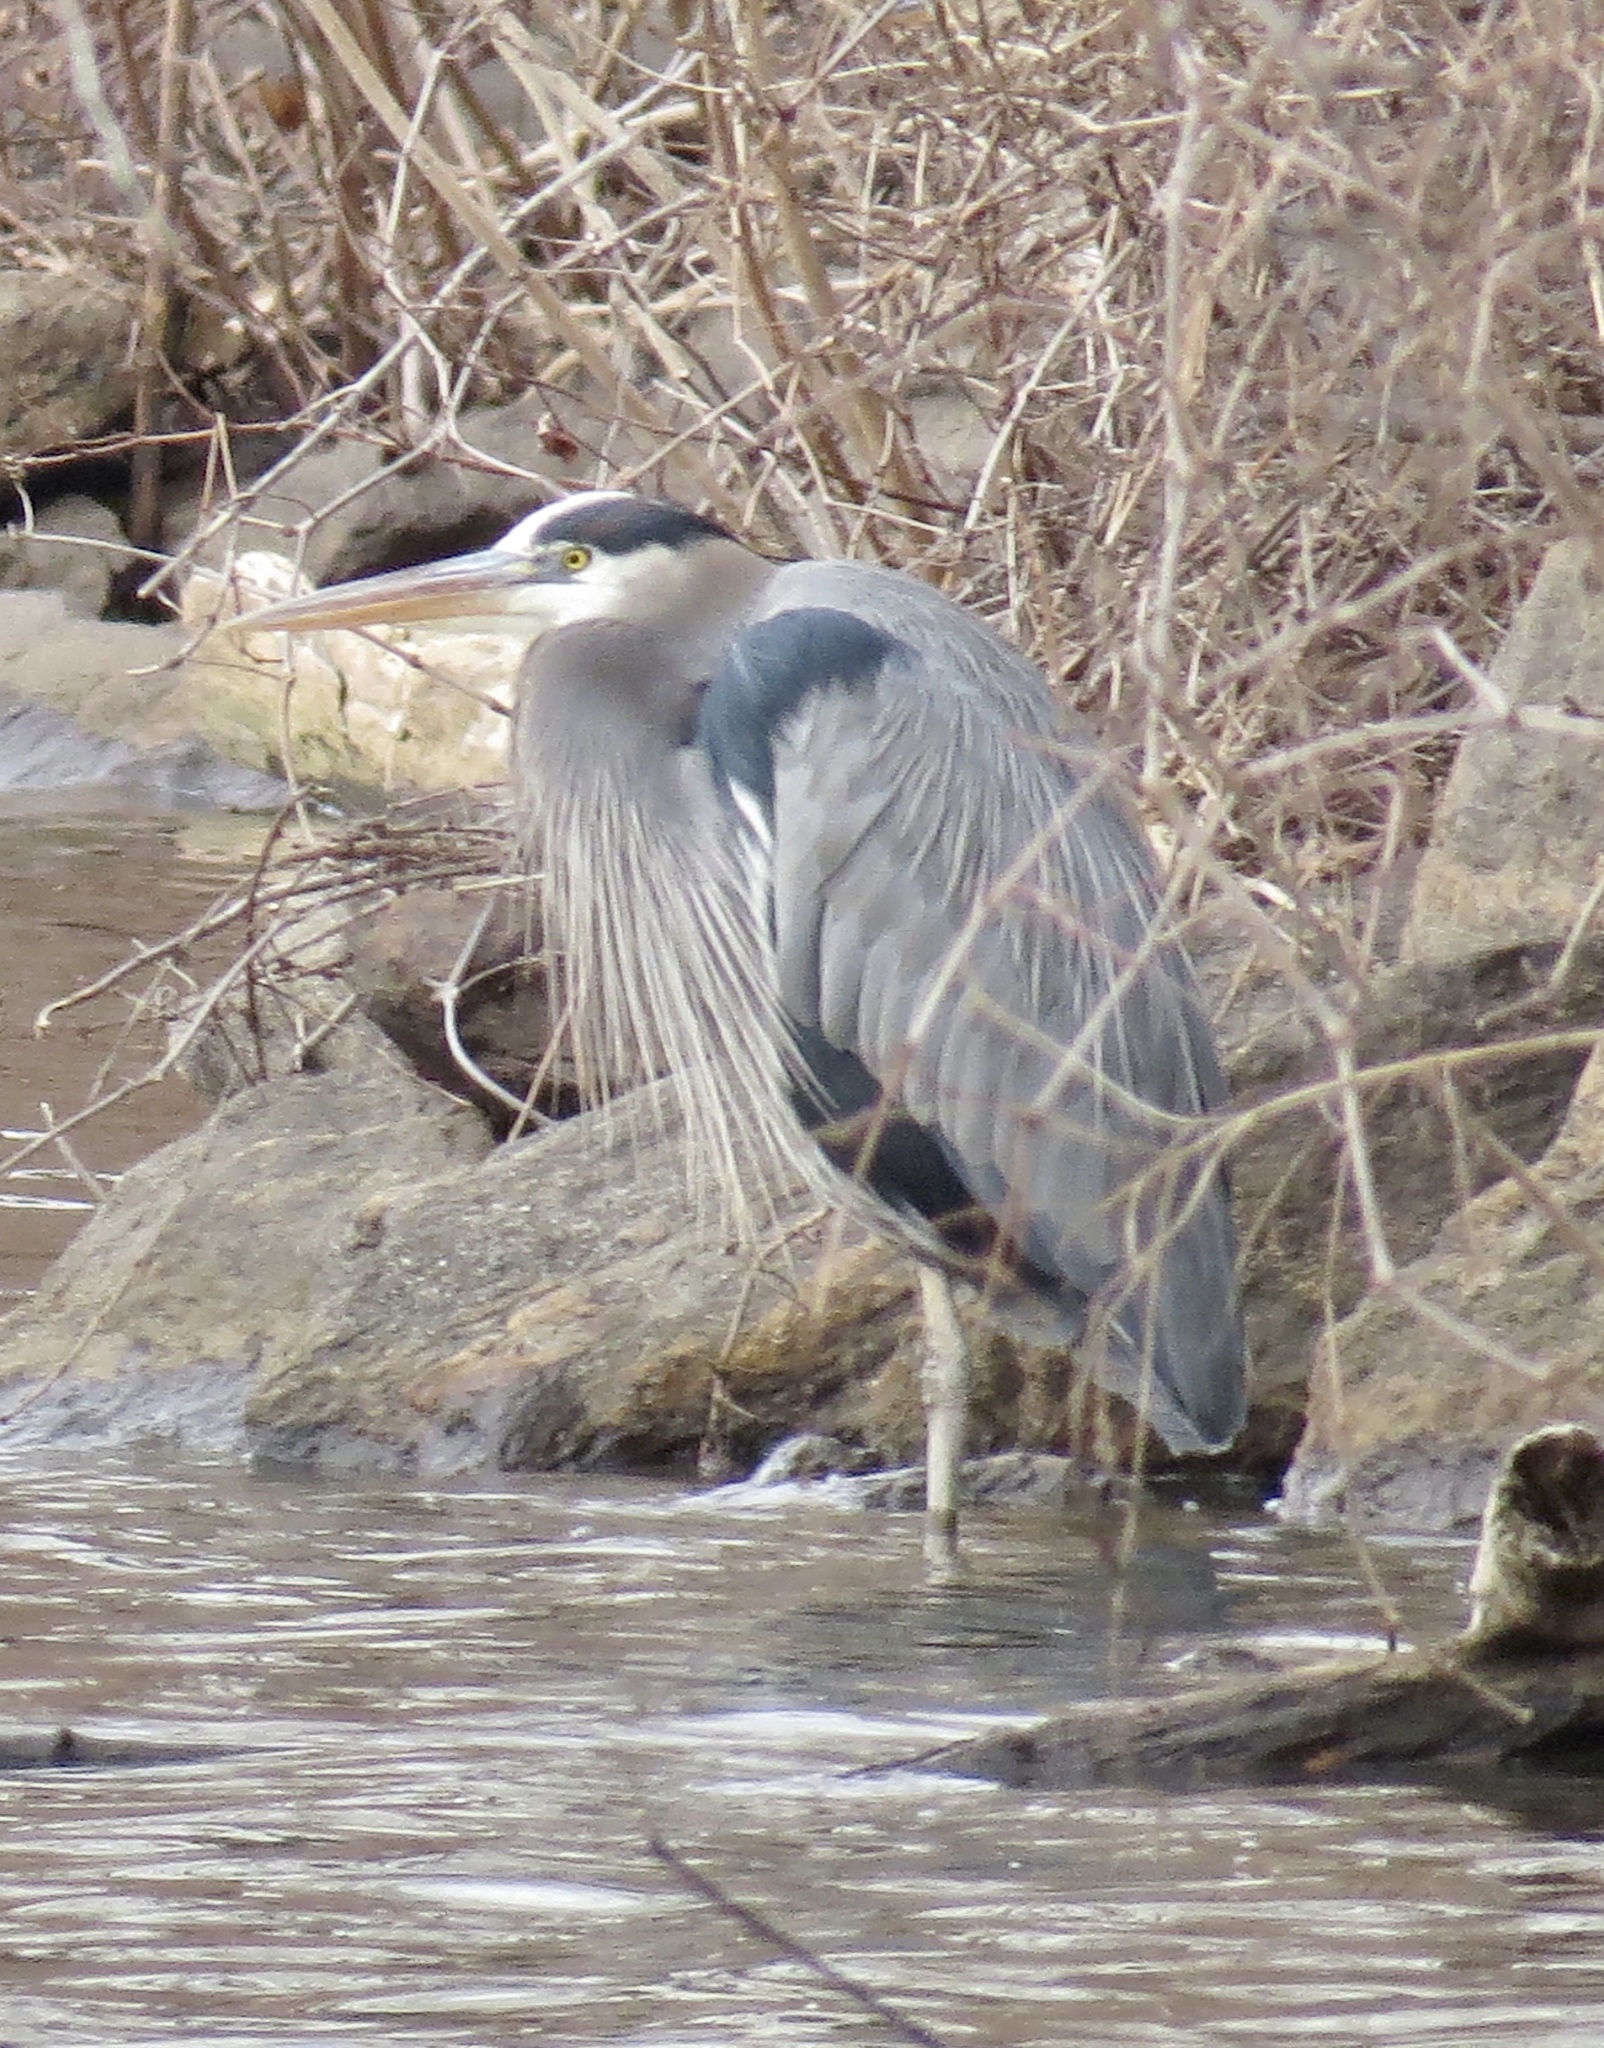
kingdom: Animalia
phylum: Chordata
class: Aves
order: Pelecaniformes
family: Ardeidae
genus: Ardea
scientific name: Ardea herodias
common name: Great blue heron
